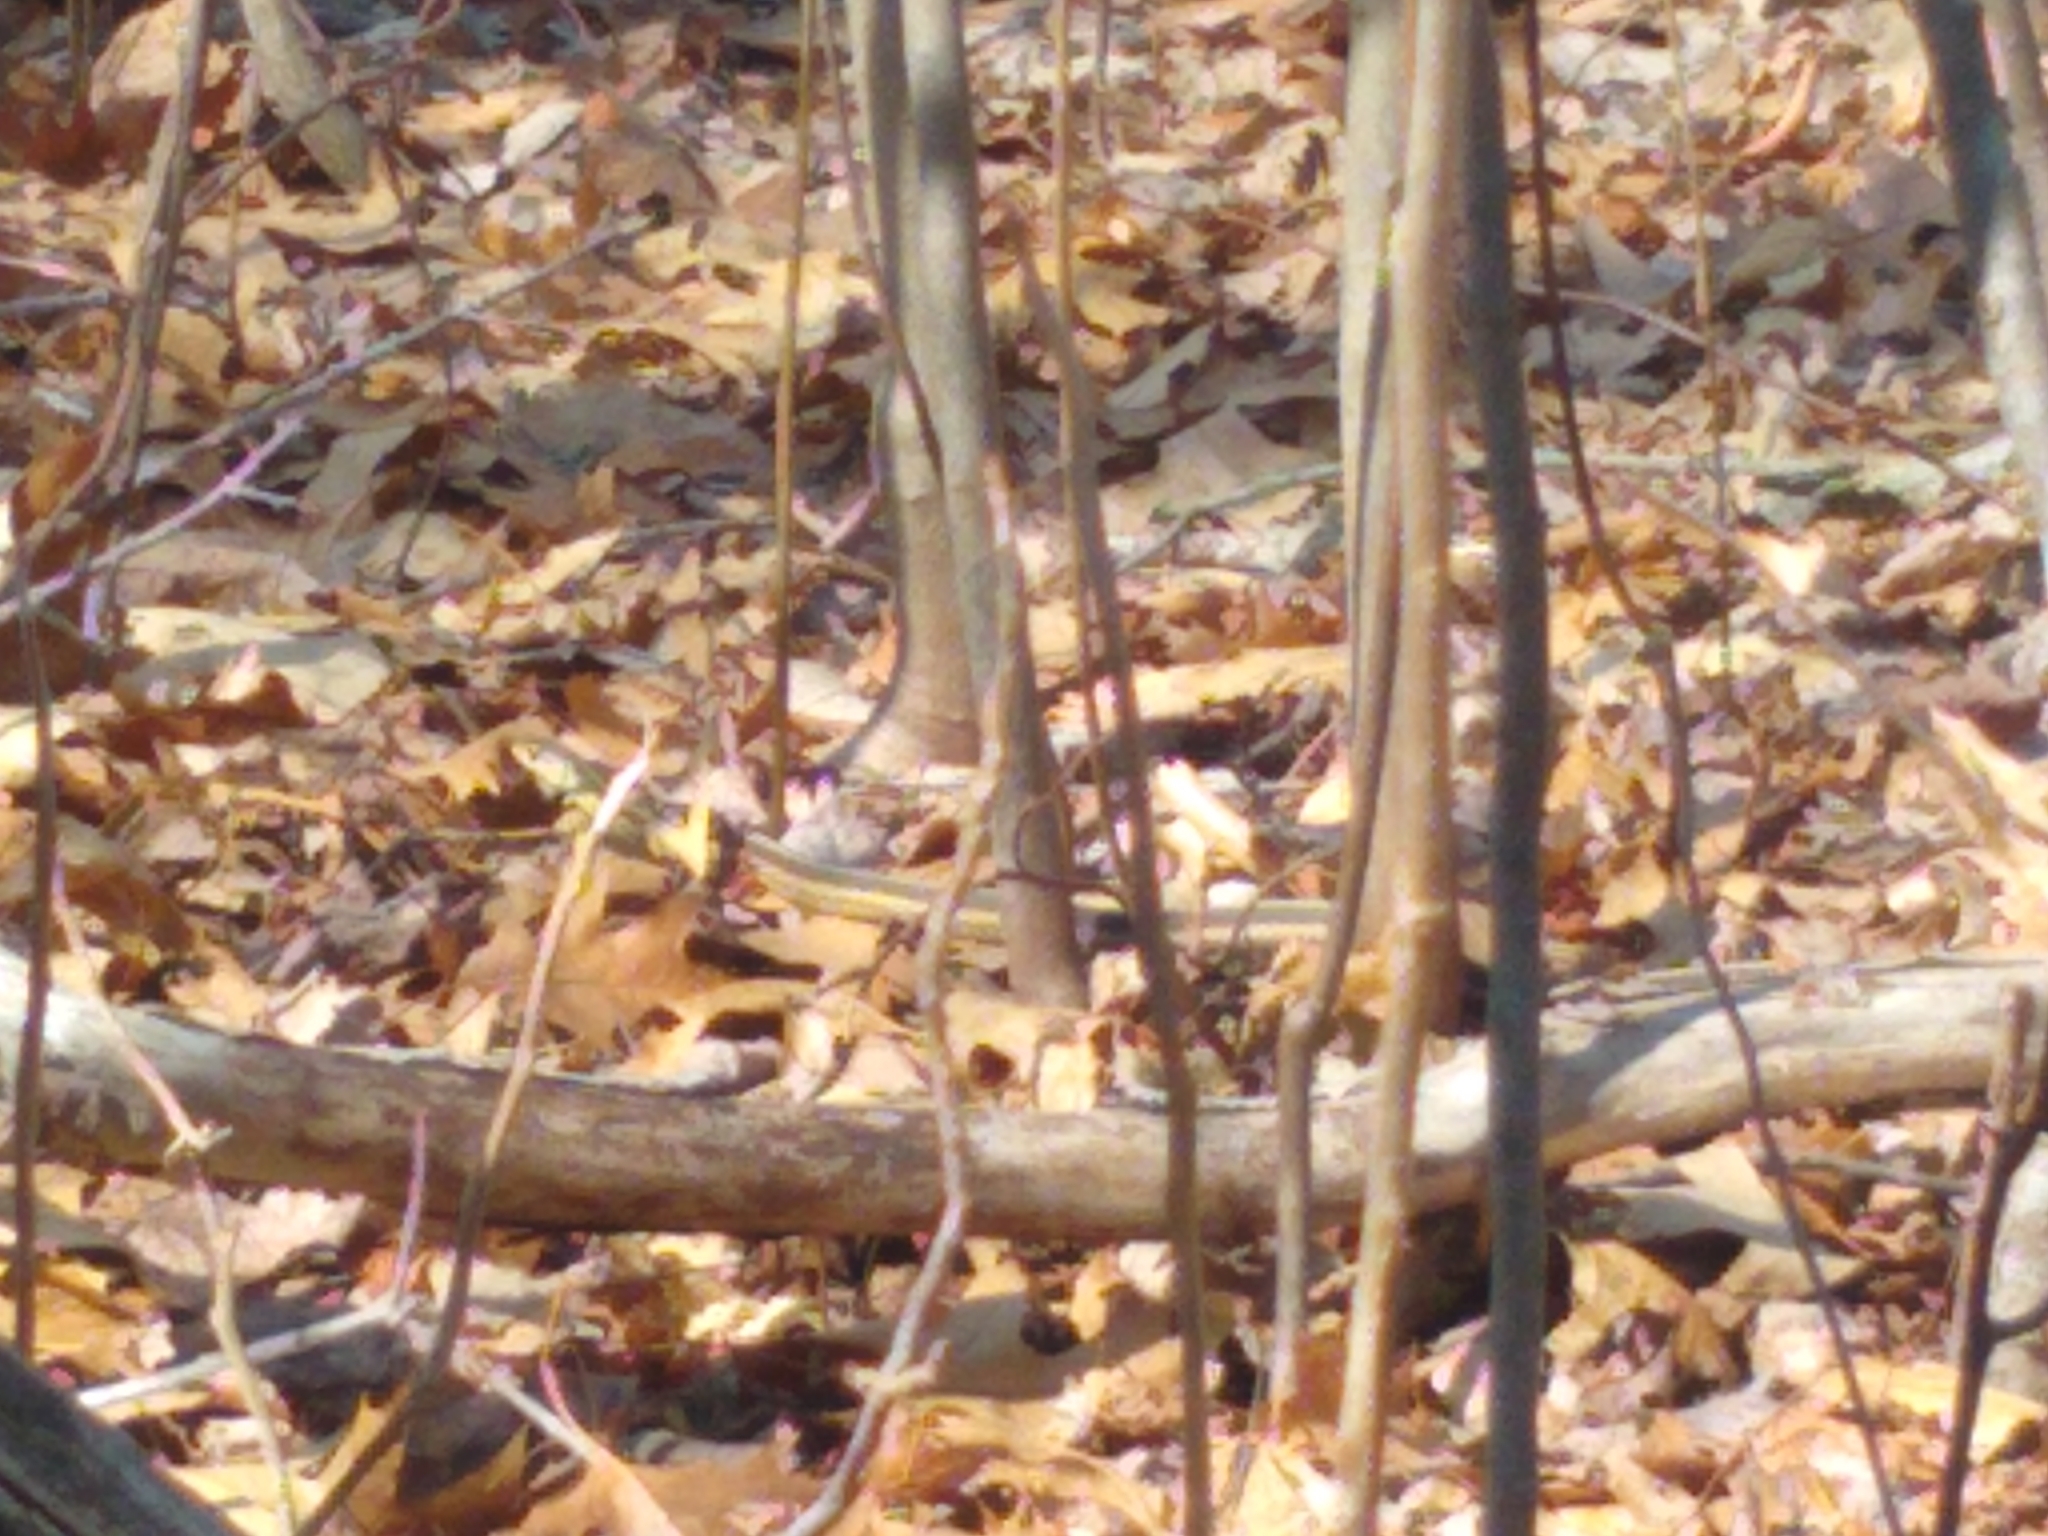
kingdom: Animalia
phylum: Chordata
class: Squamata
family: Colubridae
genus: Thamnophis
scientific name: Thamnophis sirtalis
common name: Common garter snake
